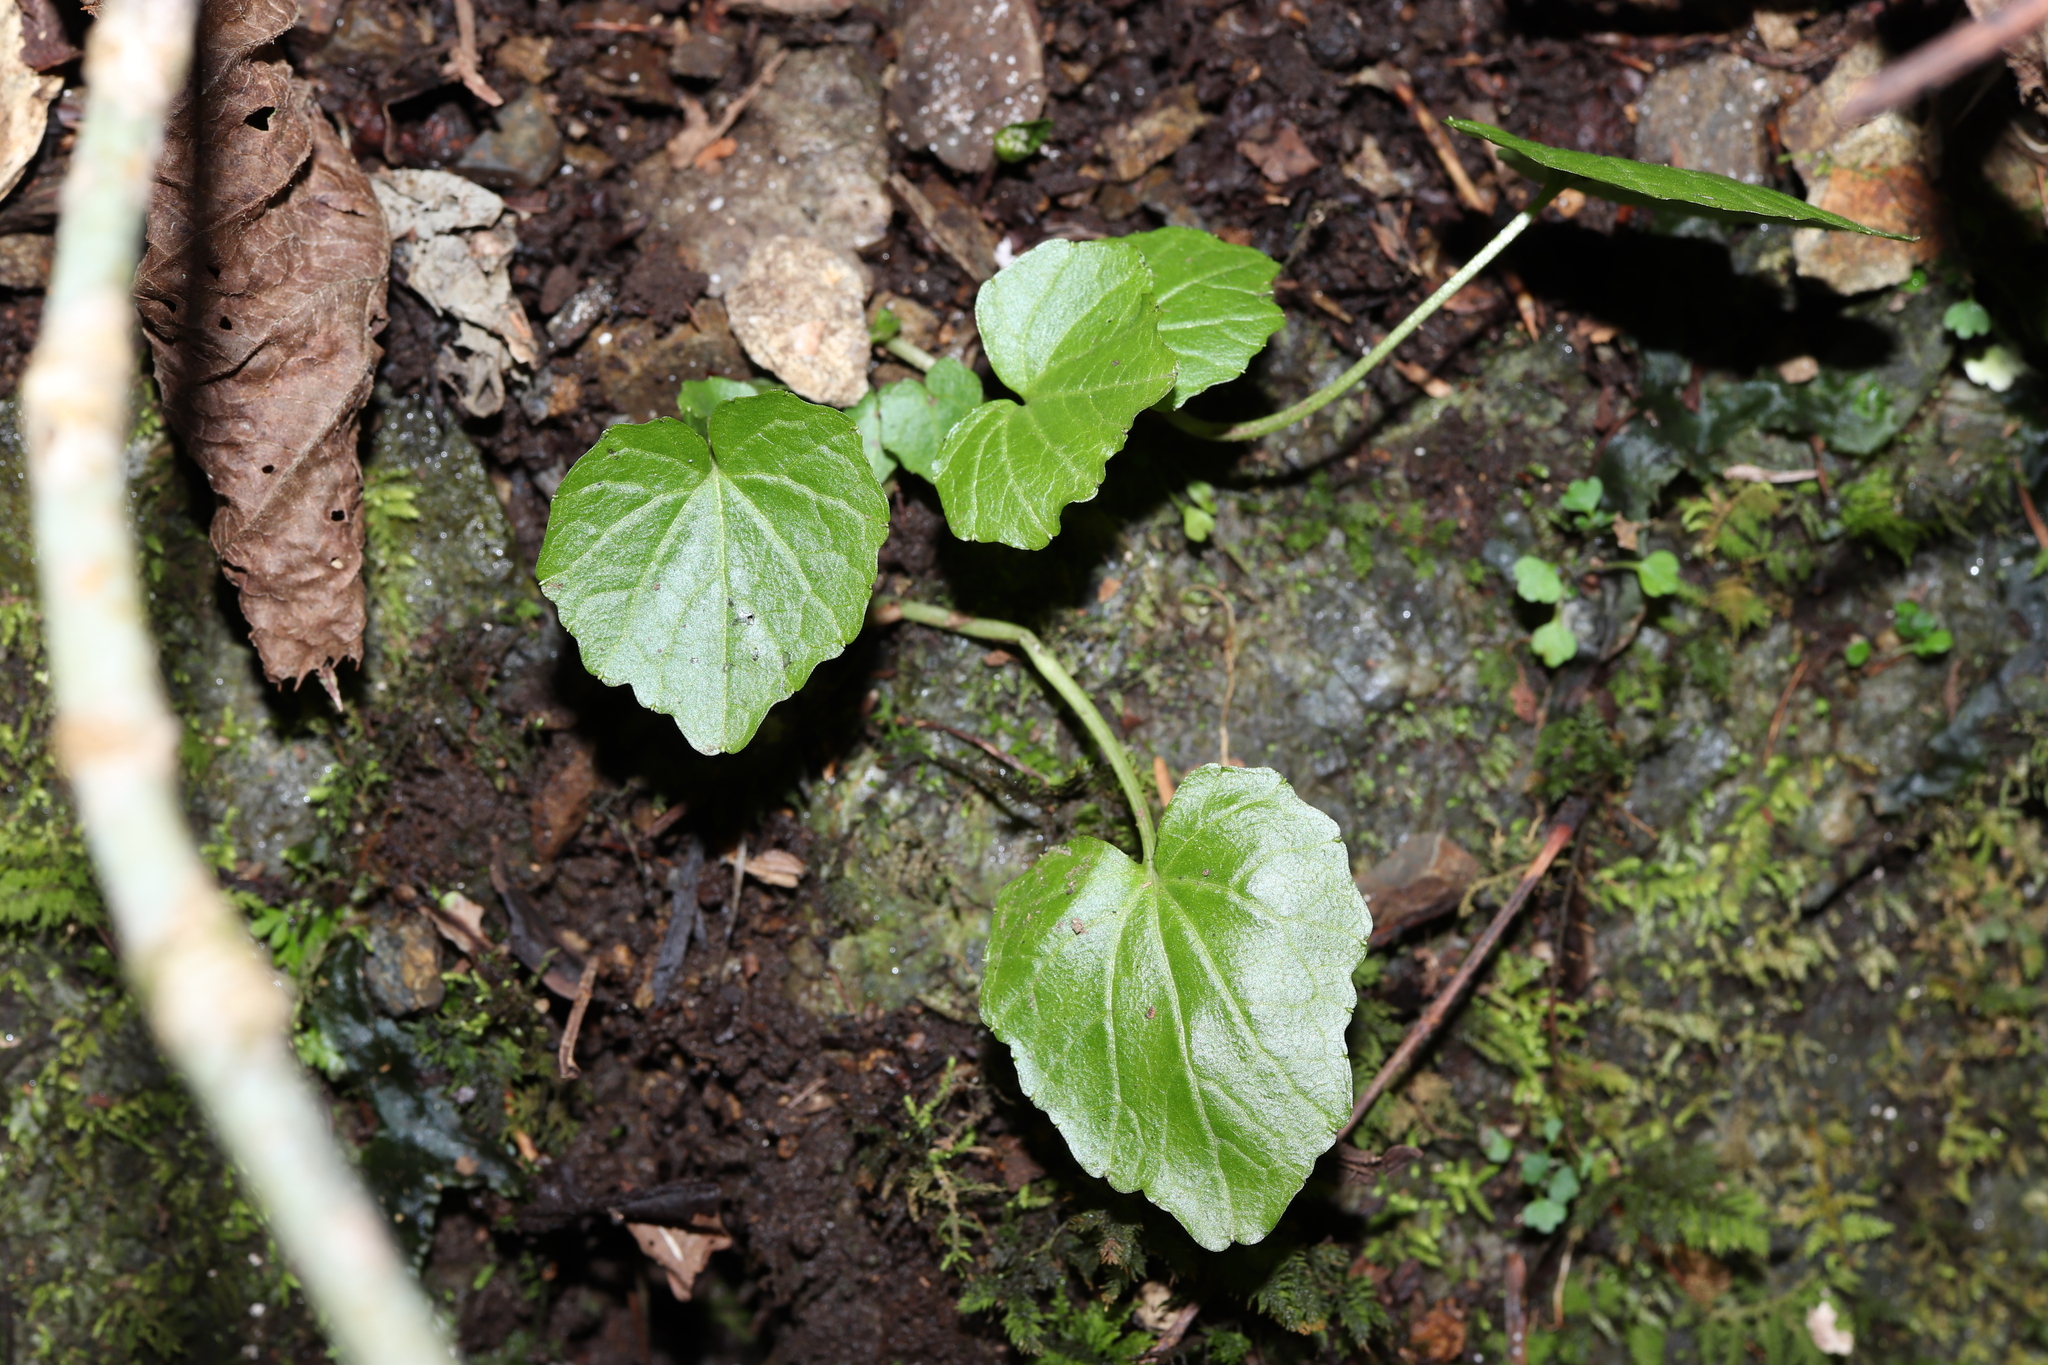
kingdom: Plantae
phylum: Tracheophyta
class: Magnoliopsida
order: Brassicales
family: Brassicaceae
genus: Eutrema
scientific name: Eutrema tenue
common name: Lesser wasabi
